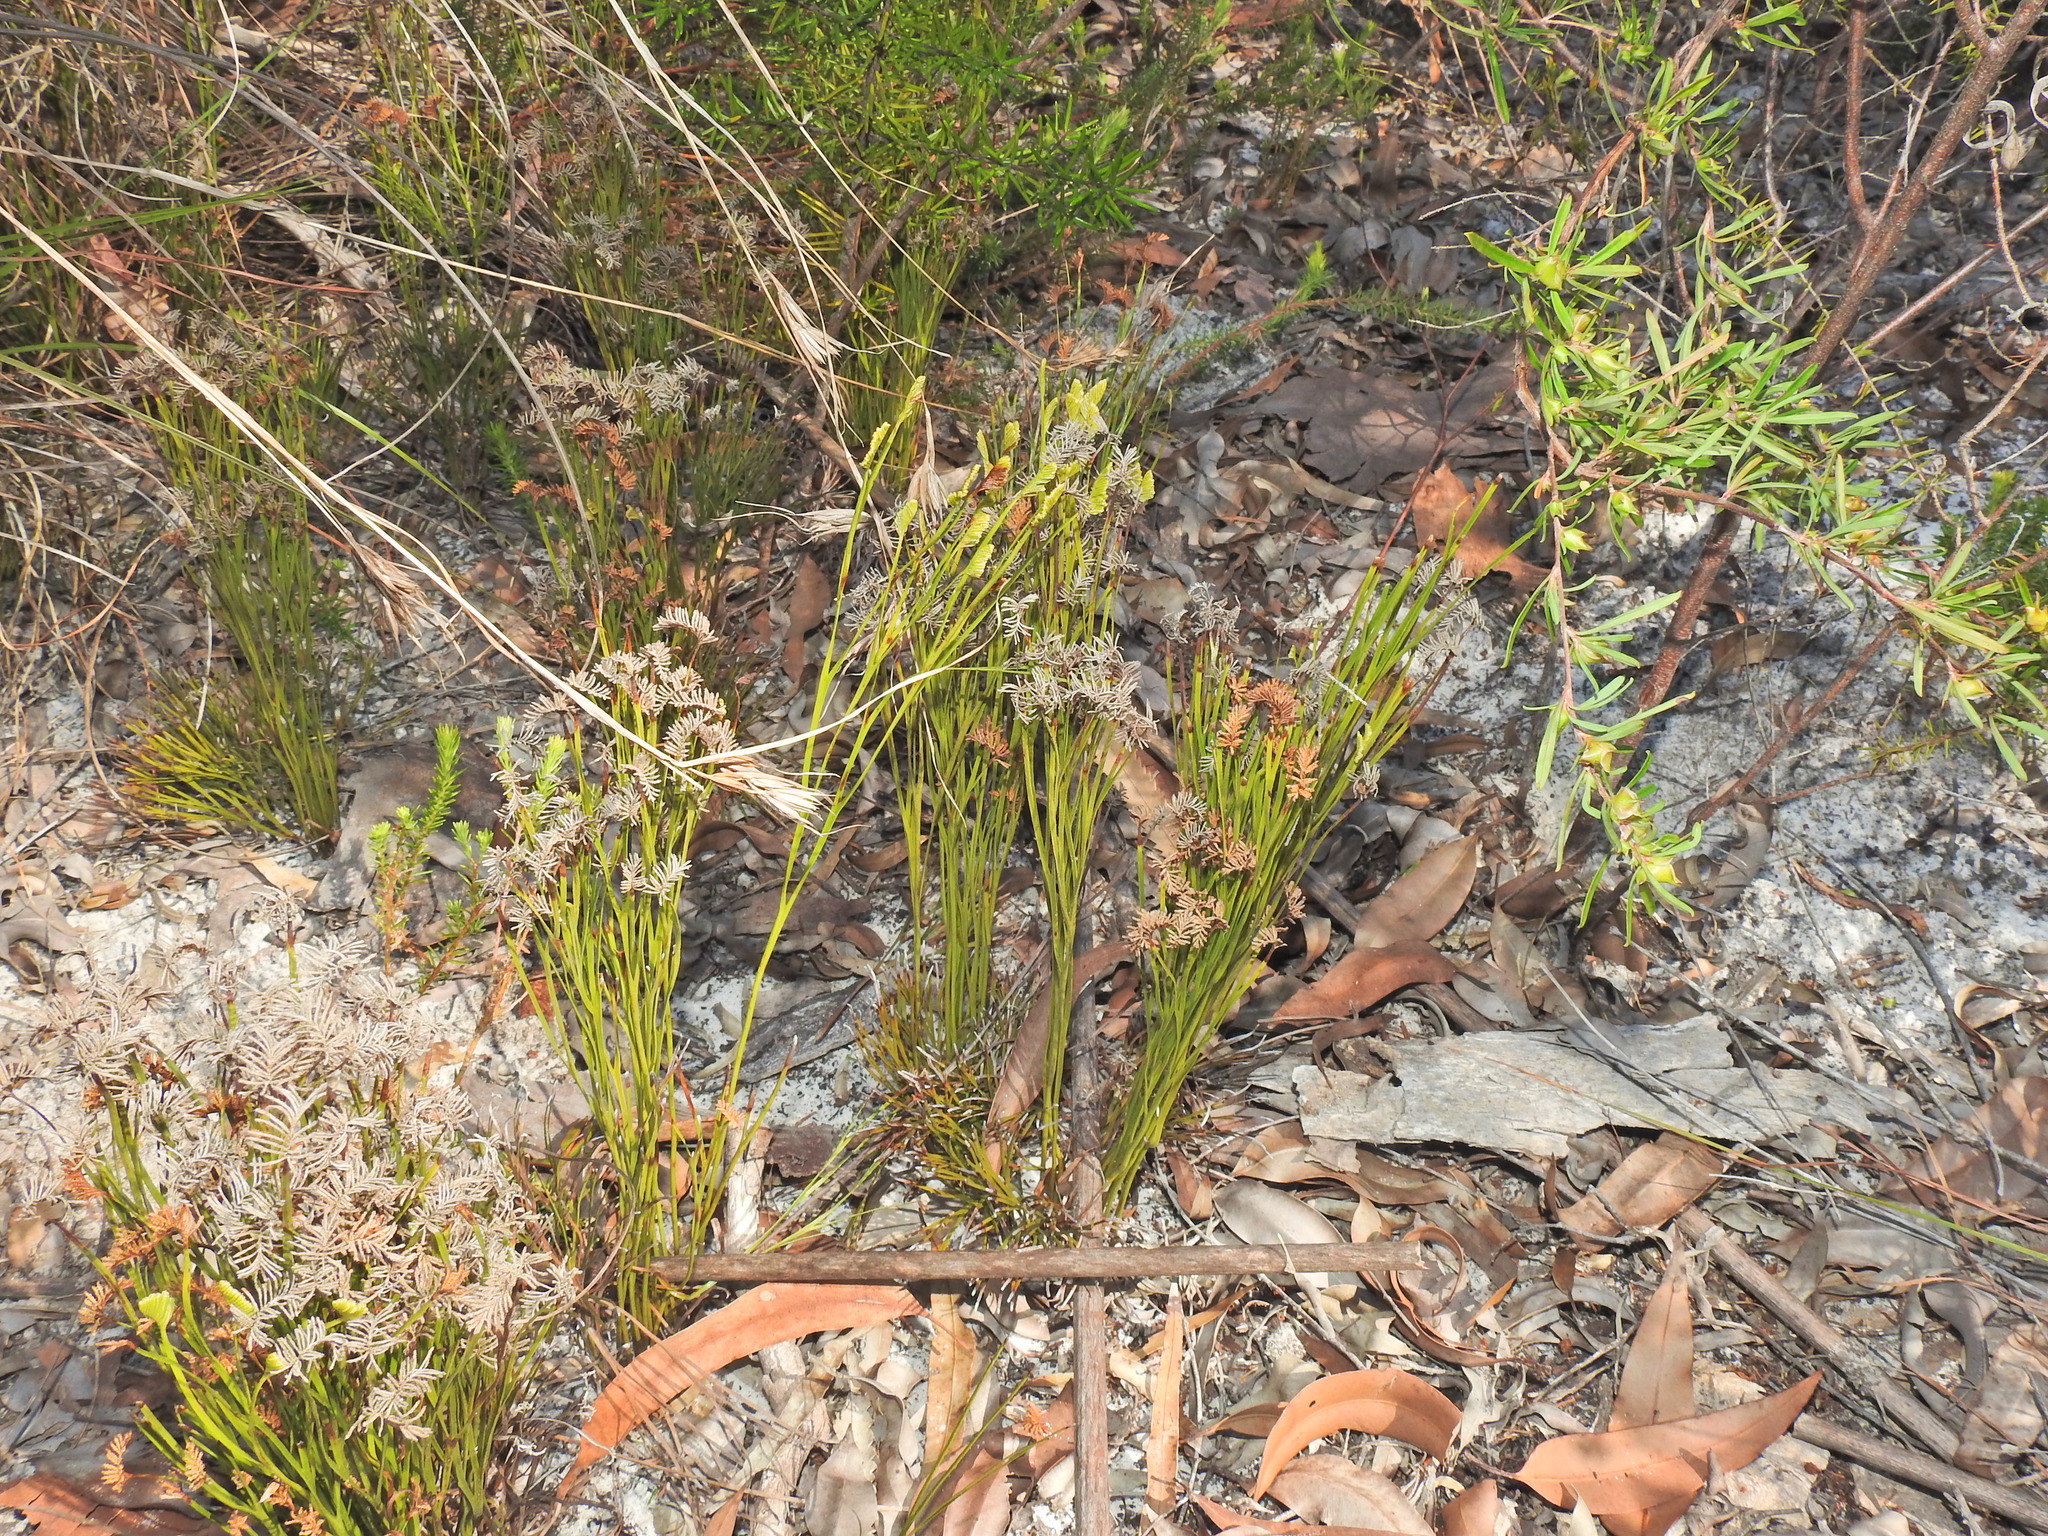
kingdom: Plantae
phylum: Tracheophyta
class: Polypodiopsida
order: Schizaeales
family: Schizaeaceae
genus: Schizaea
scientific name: Schizaea bifida
